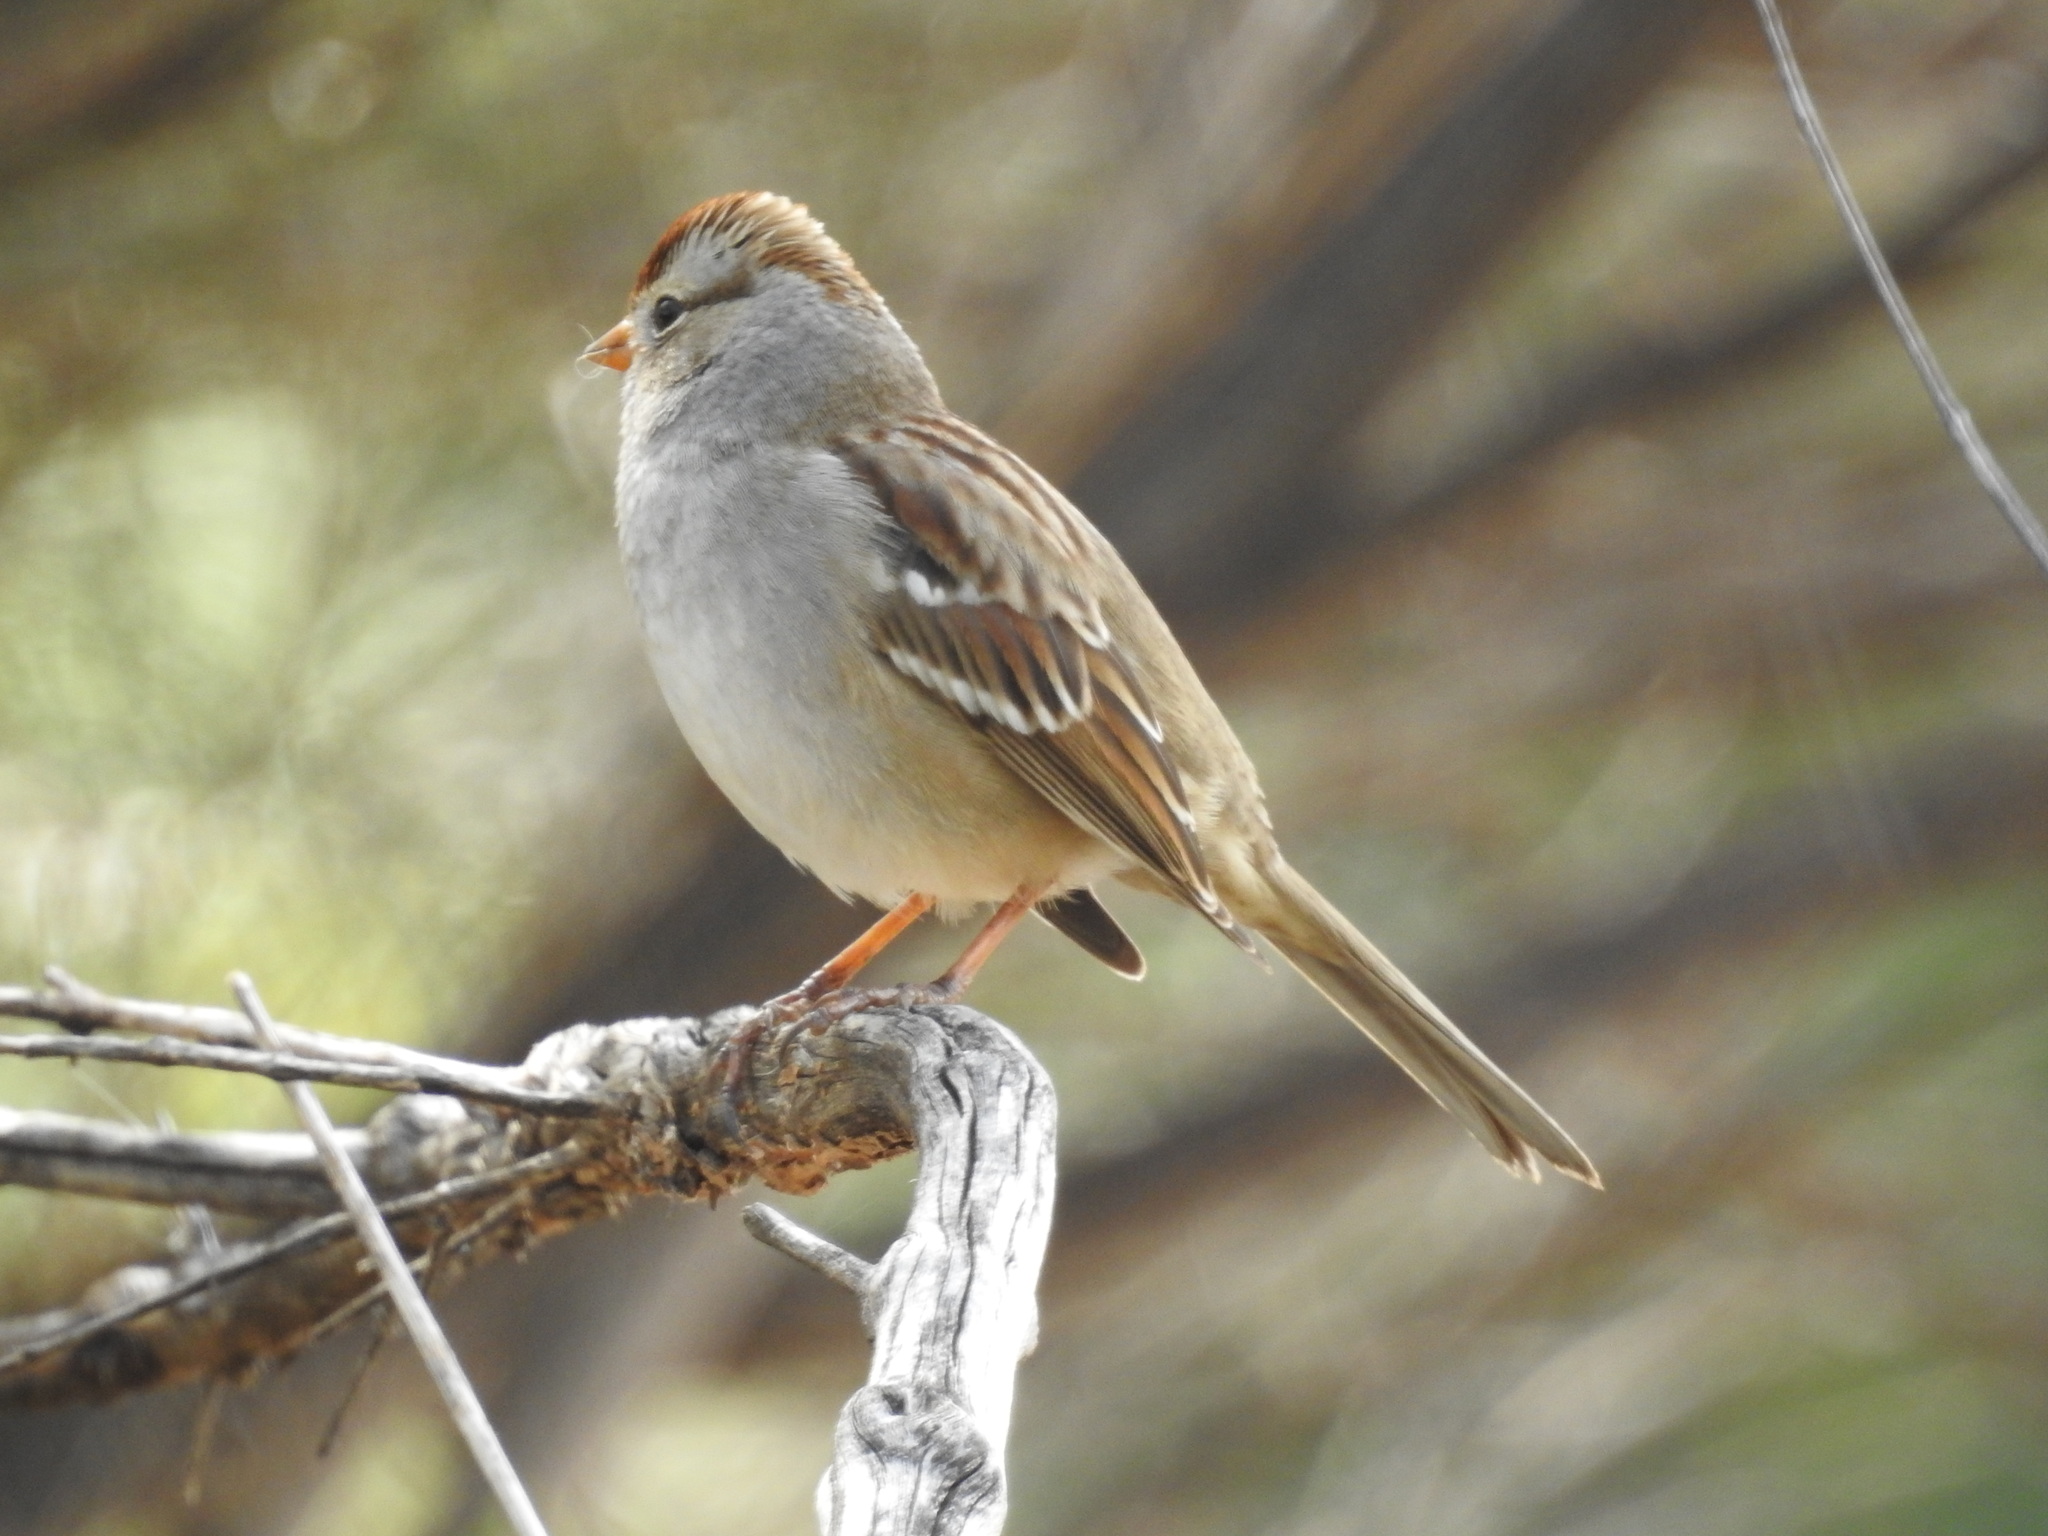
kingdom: Animalia
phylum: Chordata
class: Aves
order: Passeriformes
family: Passerellidae
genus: Zonotrichia
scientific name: Zonotrichia leucophrys
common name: White-crowned sparrow
